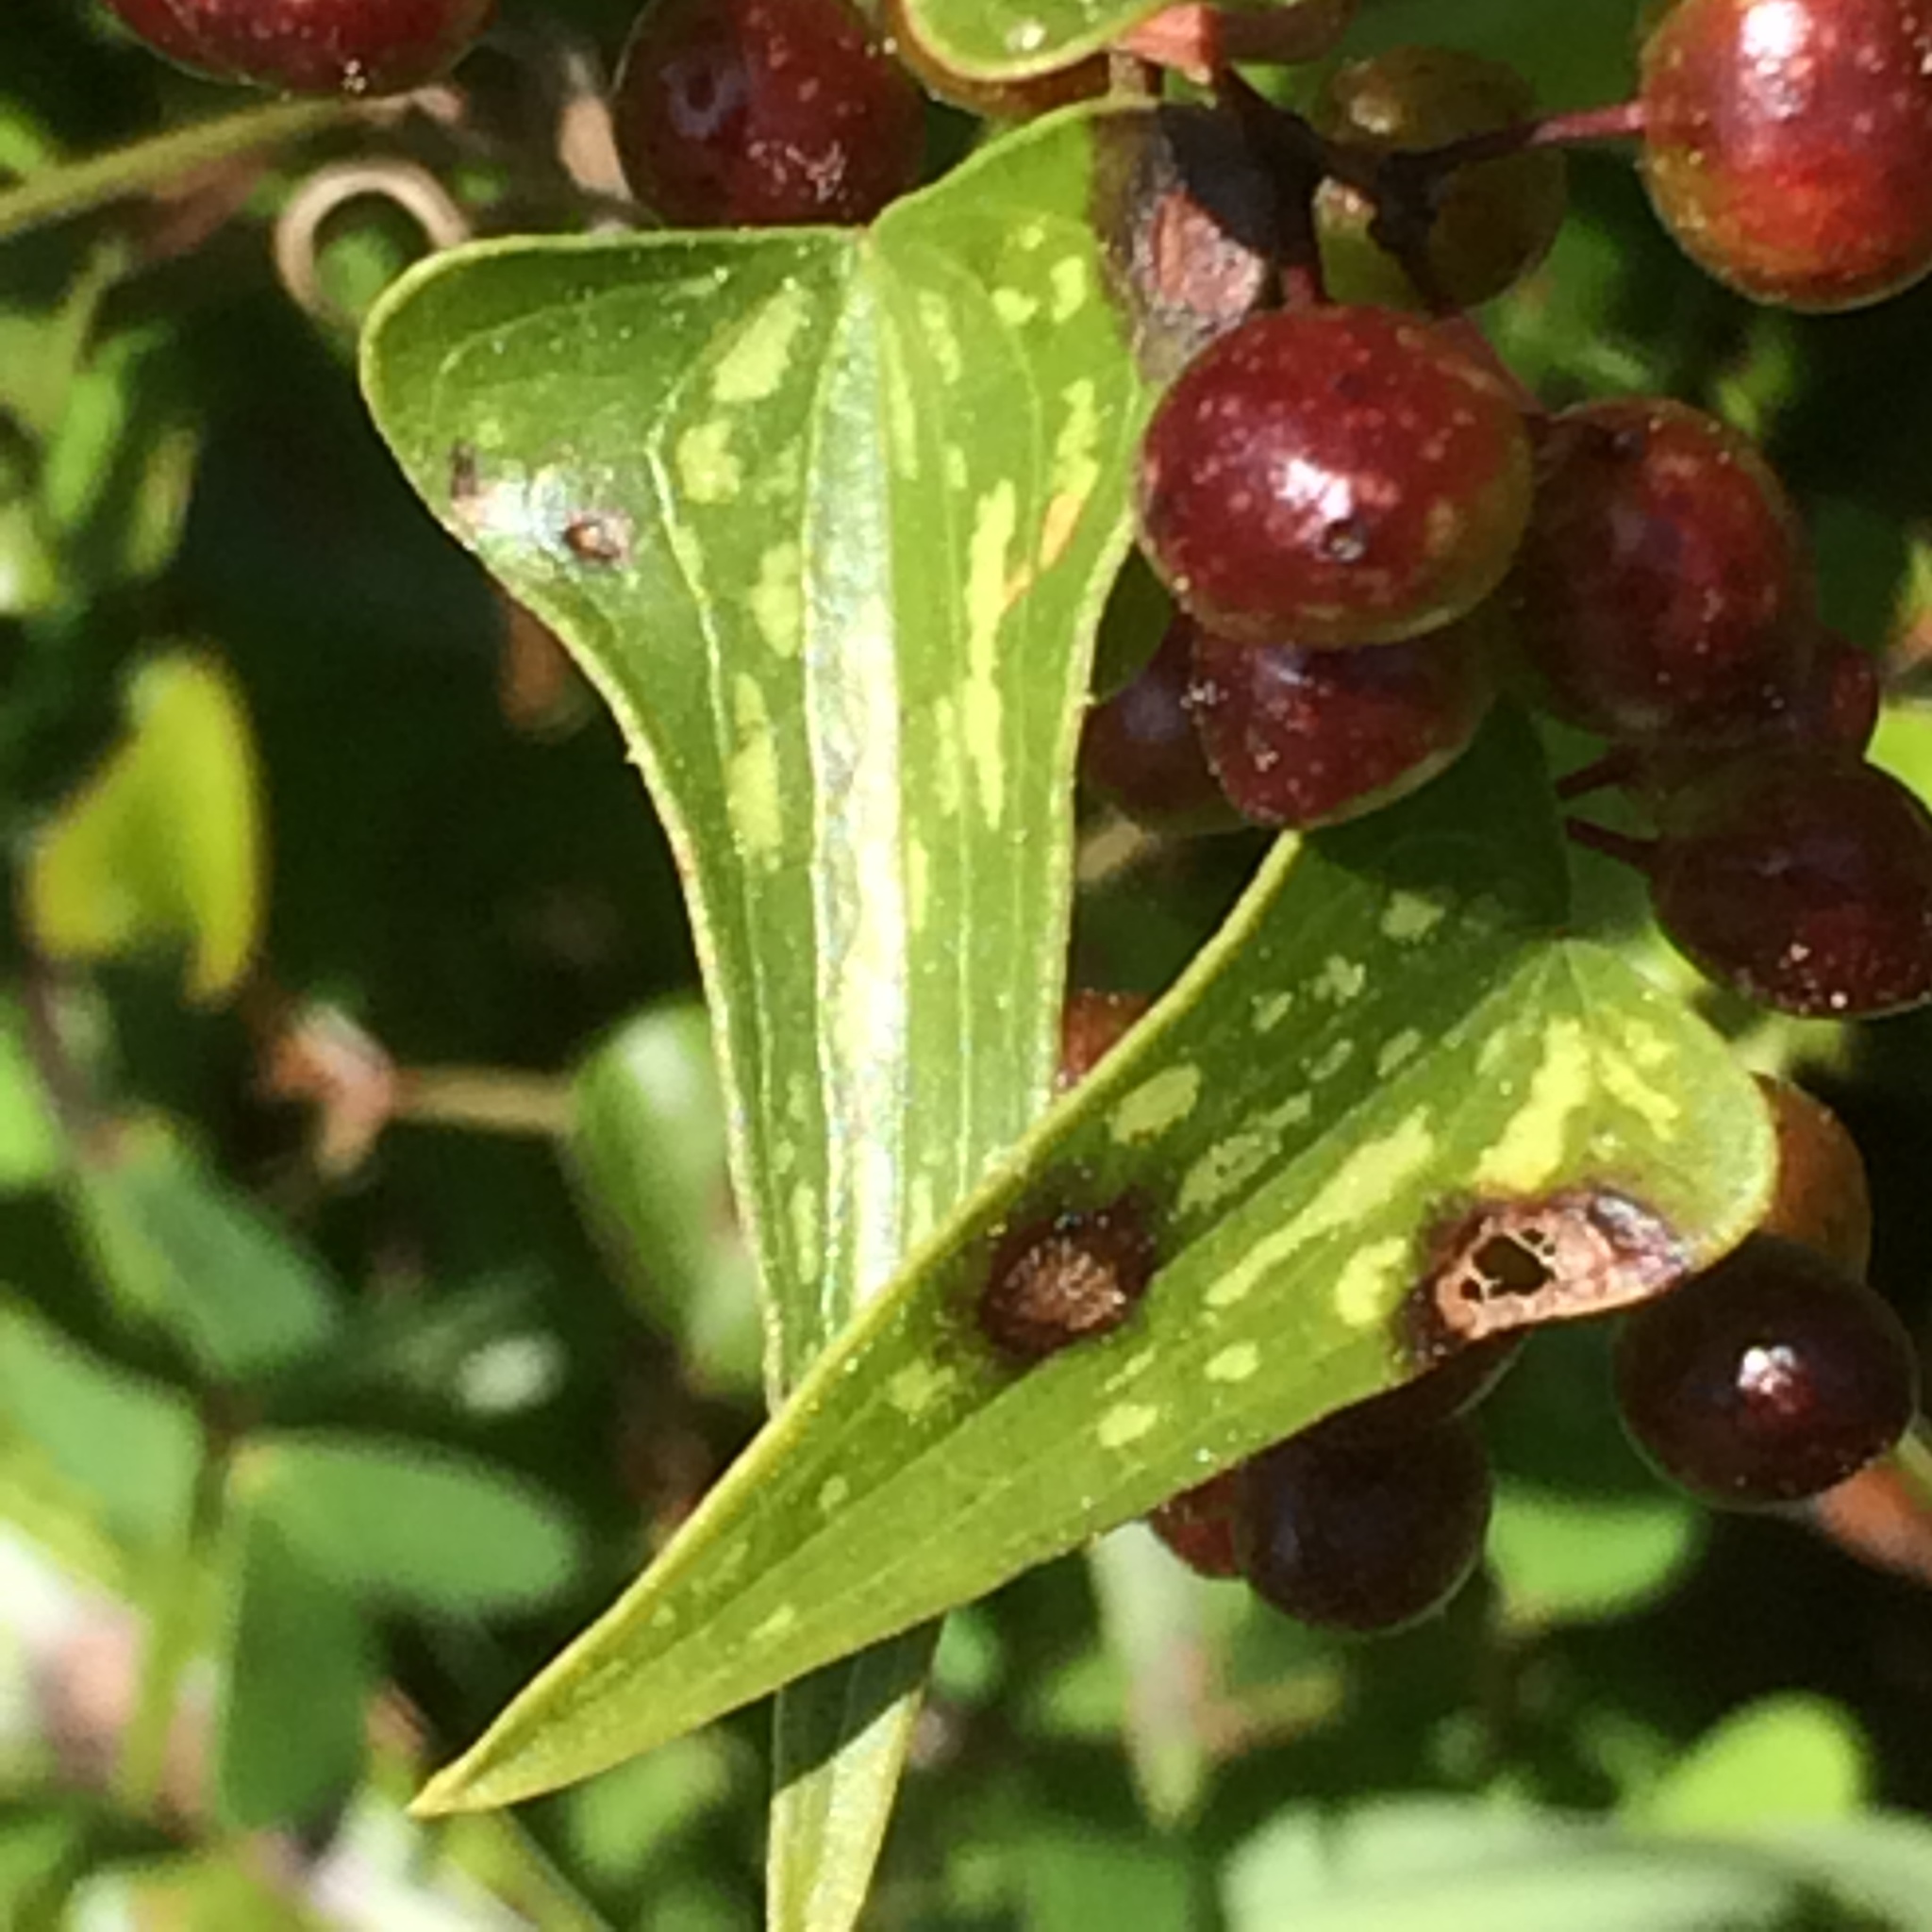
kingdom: Plantae
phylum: Tracheophyta
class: Liliopsida
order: Liliales
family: Smilacaceae
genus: Smilax
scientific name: Smilax aspera
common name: Common smilax
